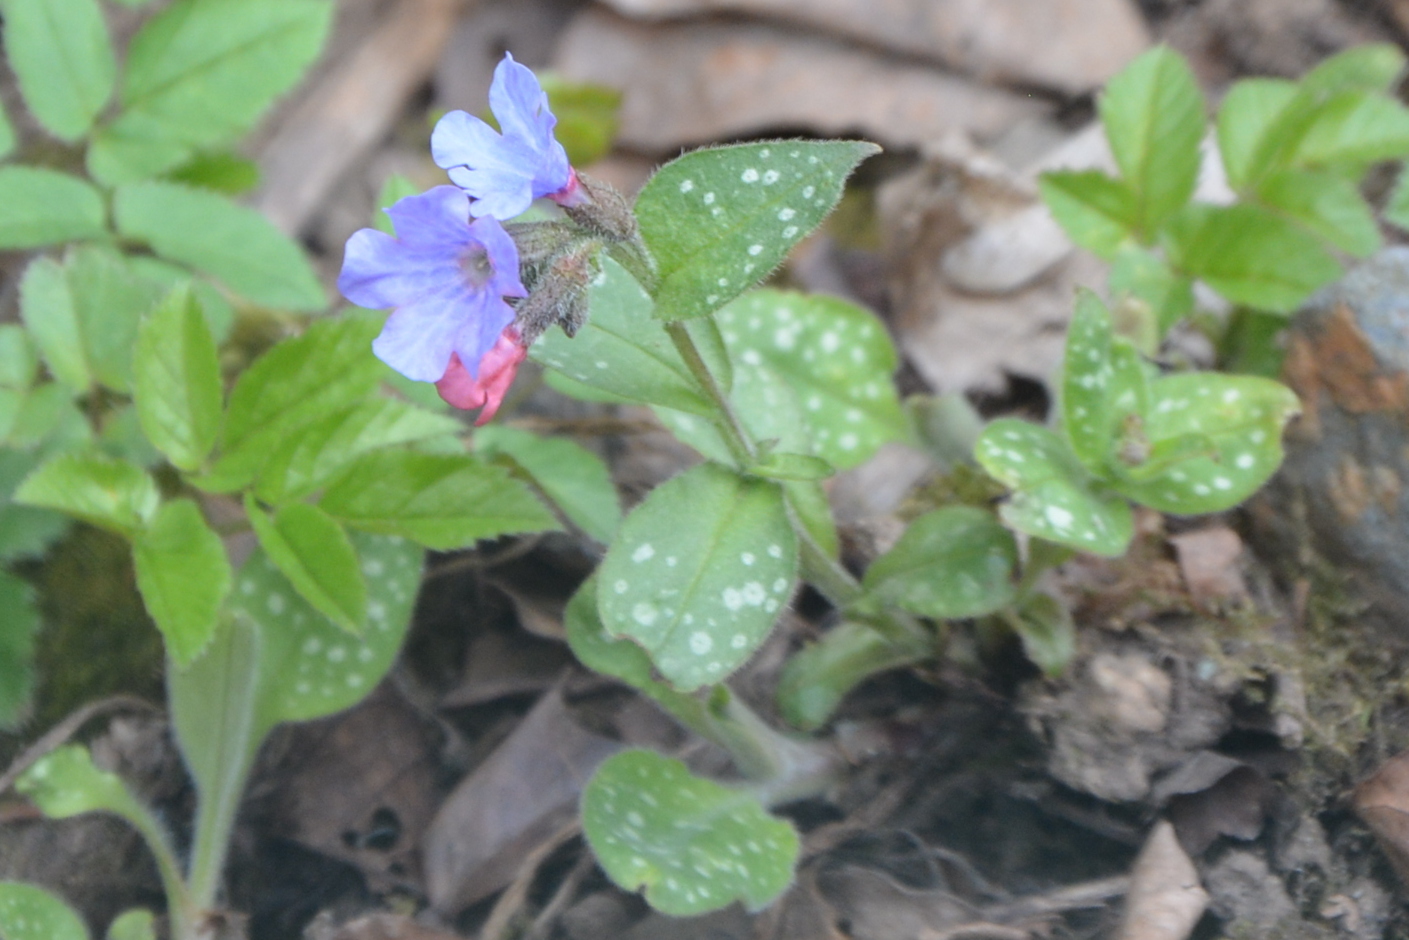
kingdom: Plantae
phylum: Tracheophyta
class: Magnoliopsida
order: Boraginales
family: Boraginaceae
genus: Pulmonaria
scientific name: Pulmonaria officinalis
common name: Lungwort
